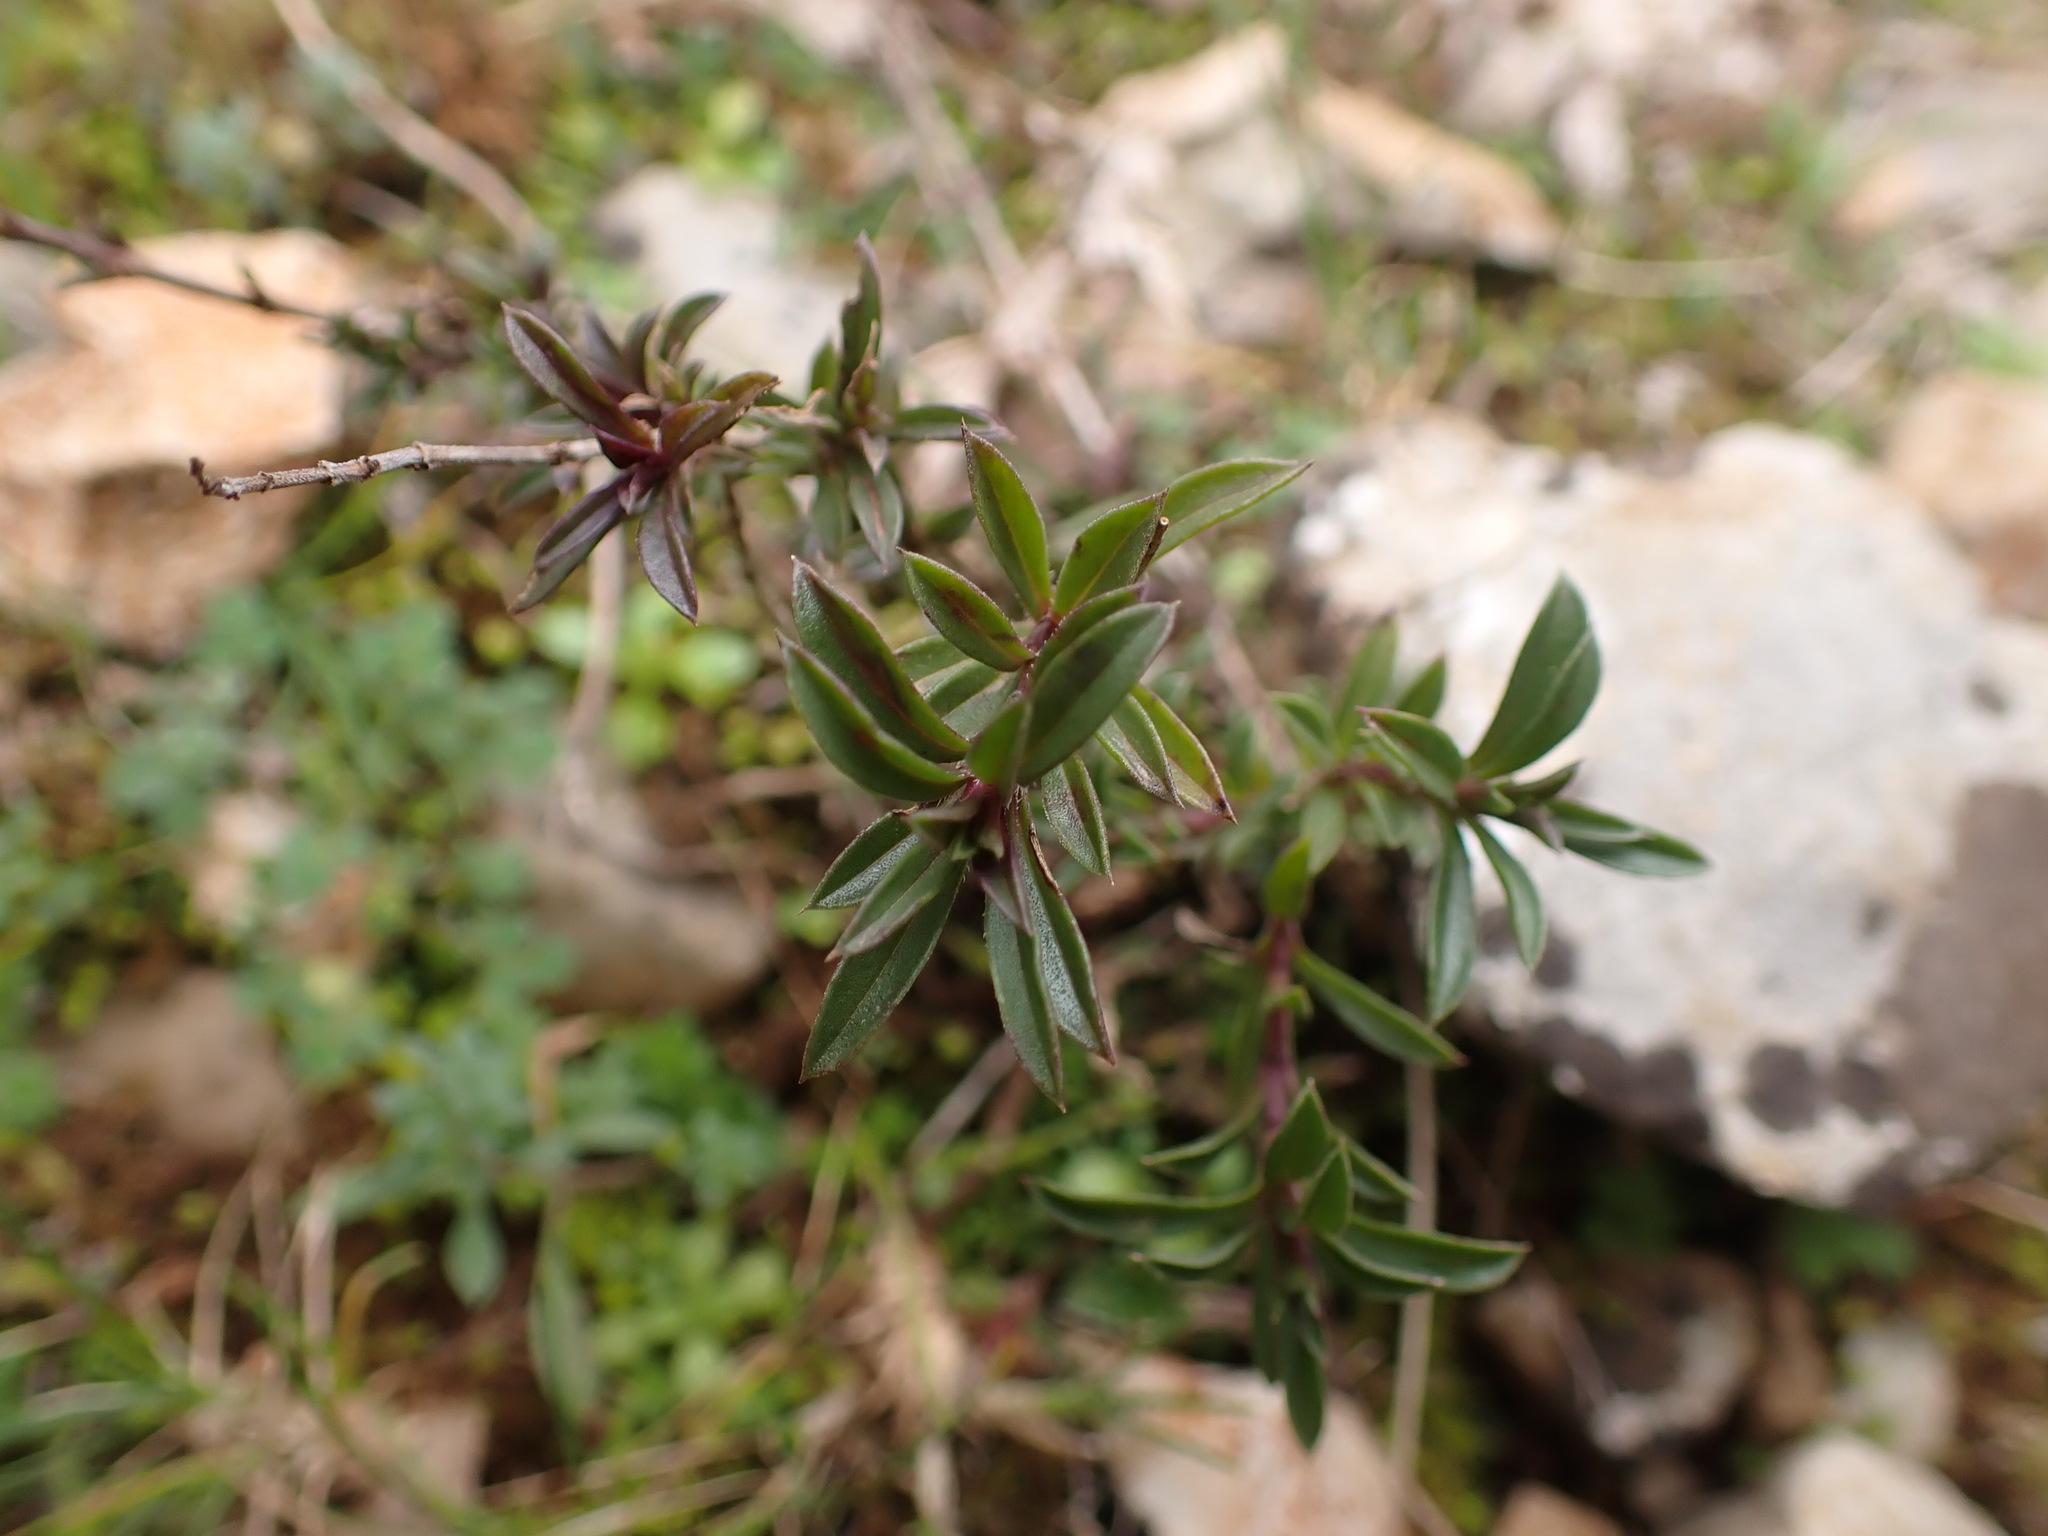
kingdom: Plantae
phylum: Tracheophyta
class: Magnoliopsida
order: Lamiales
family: Lamiaceae
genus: Satureja
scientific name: Satureja montana
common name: Winter savory
